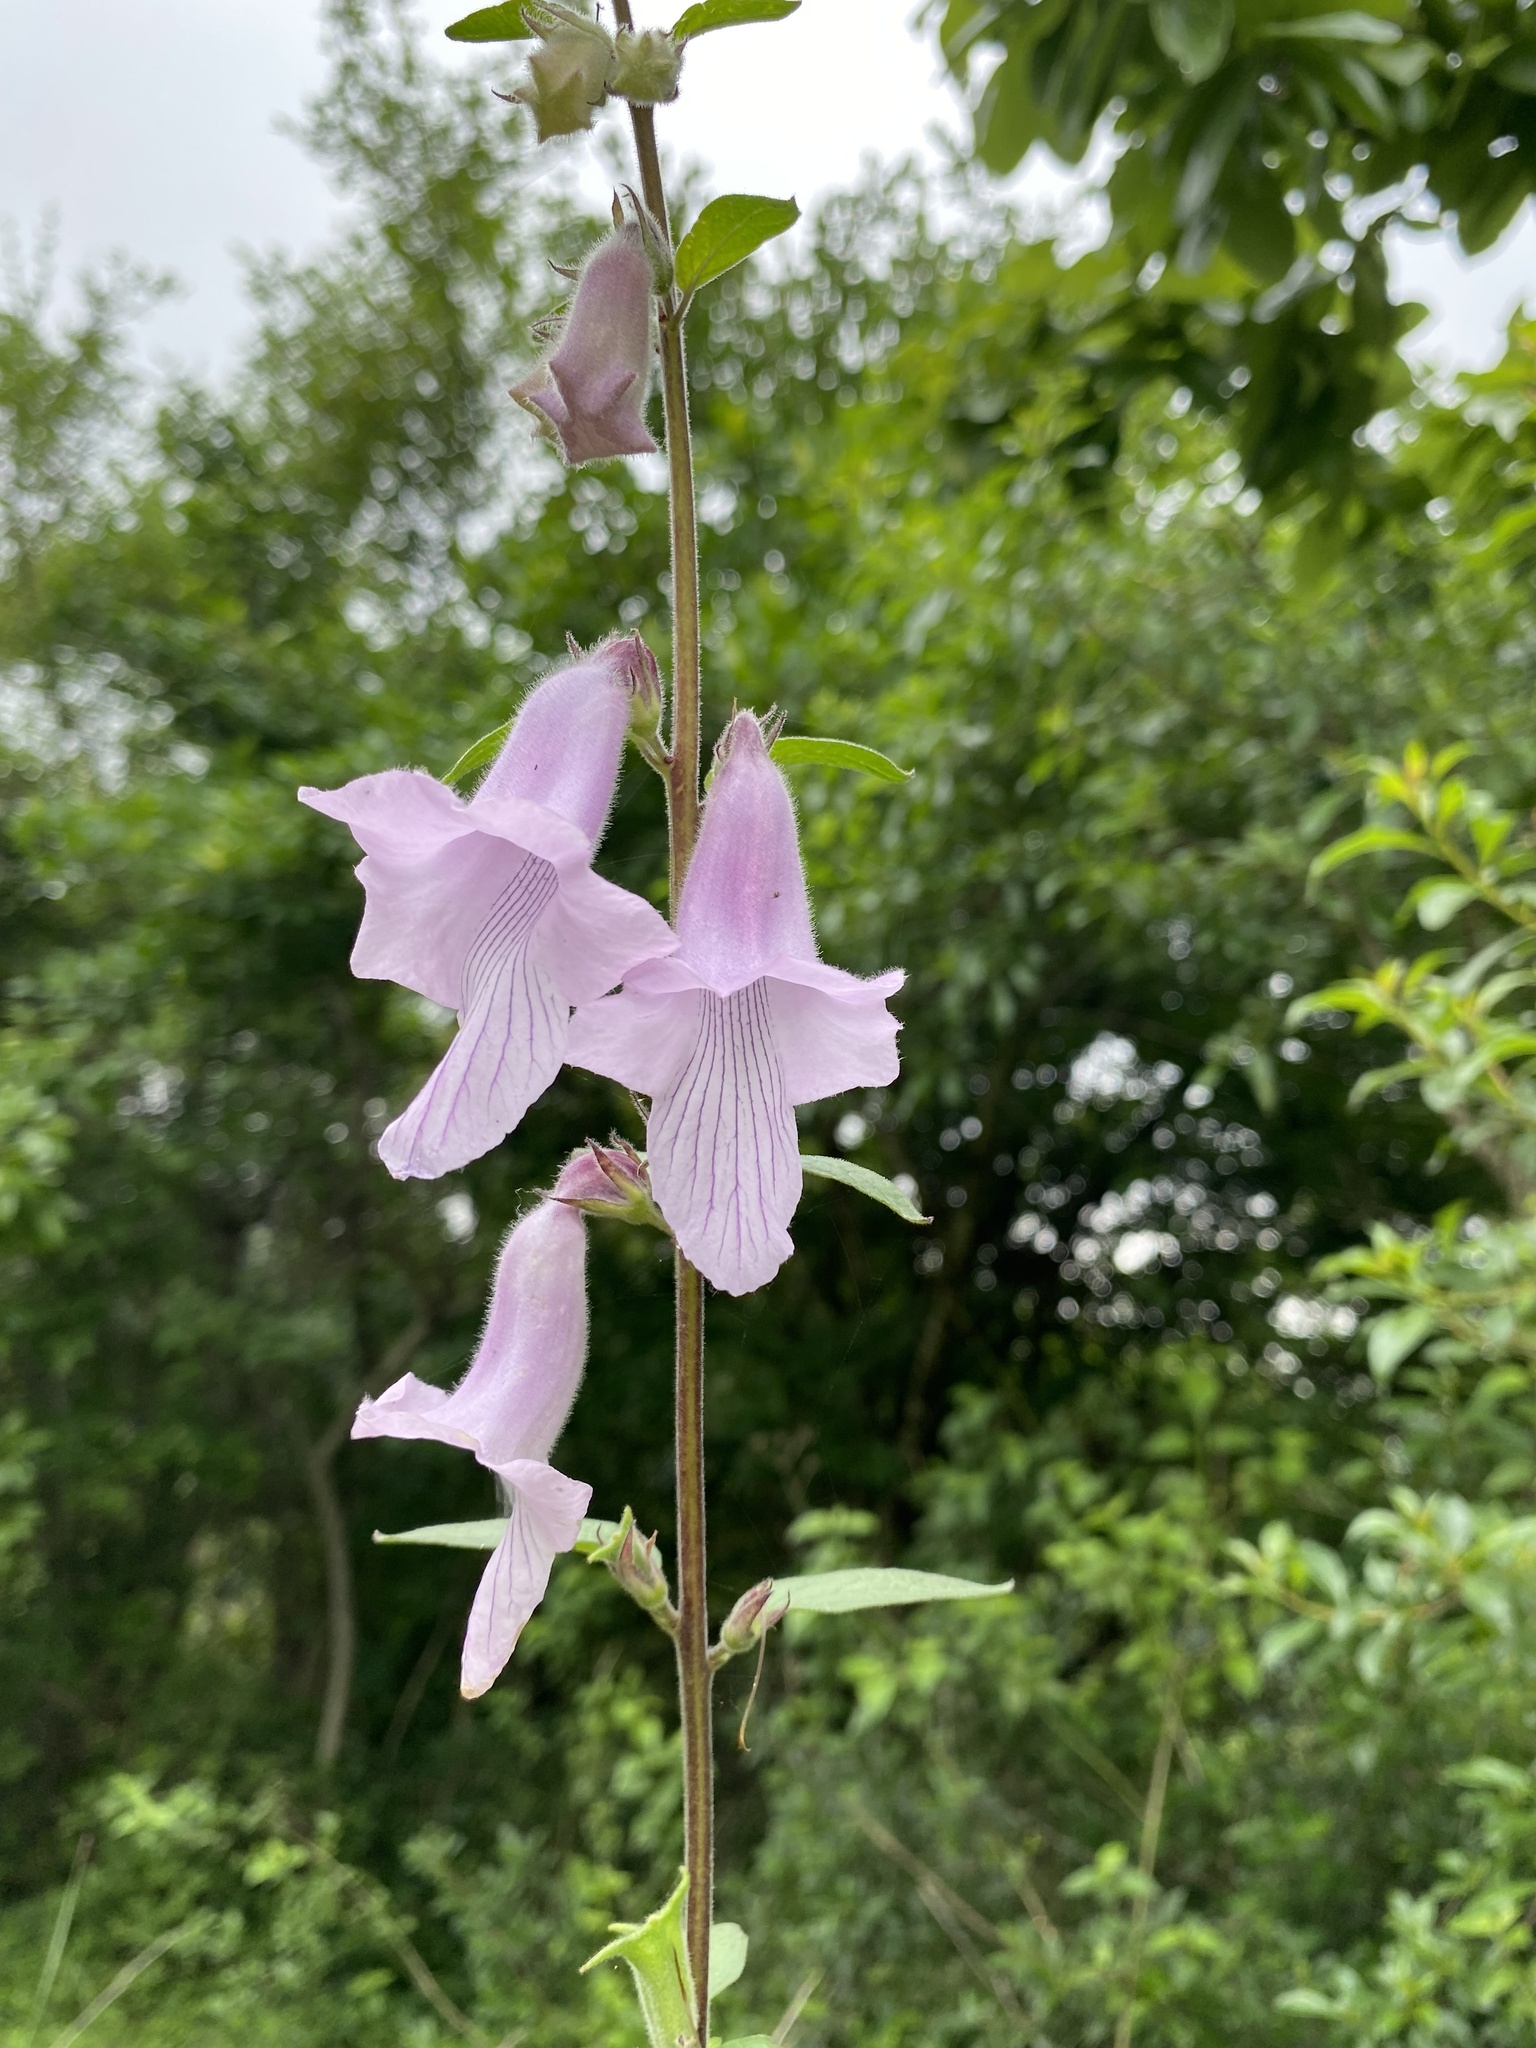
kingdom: Plantae
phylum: Tracheophyta
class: Magnoliopsida
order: Lamiales
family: Pedaliaceae
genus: Sesamum
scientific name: Sesamum trilobum
